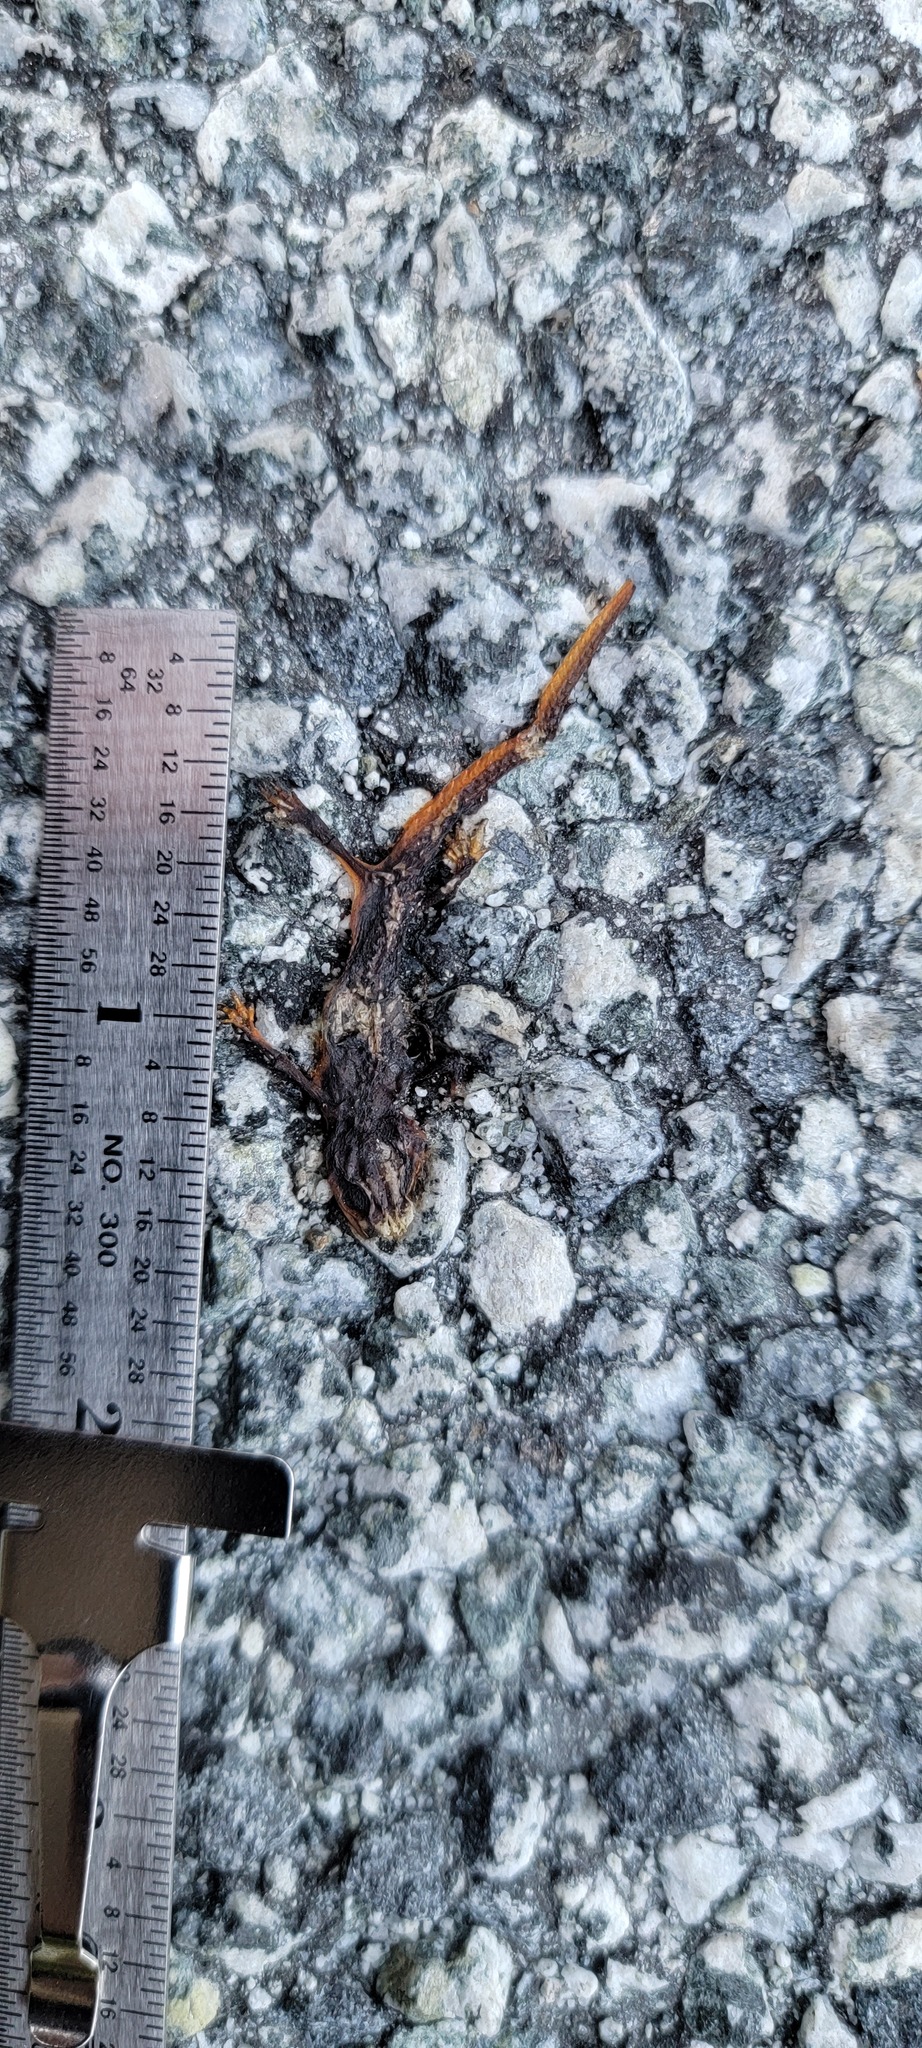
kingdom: Animalia
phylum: Chordata
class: Amphibia
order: Caudata
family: Salamandridae
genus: Taricha
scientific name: Taricha
